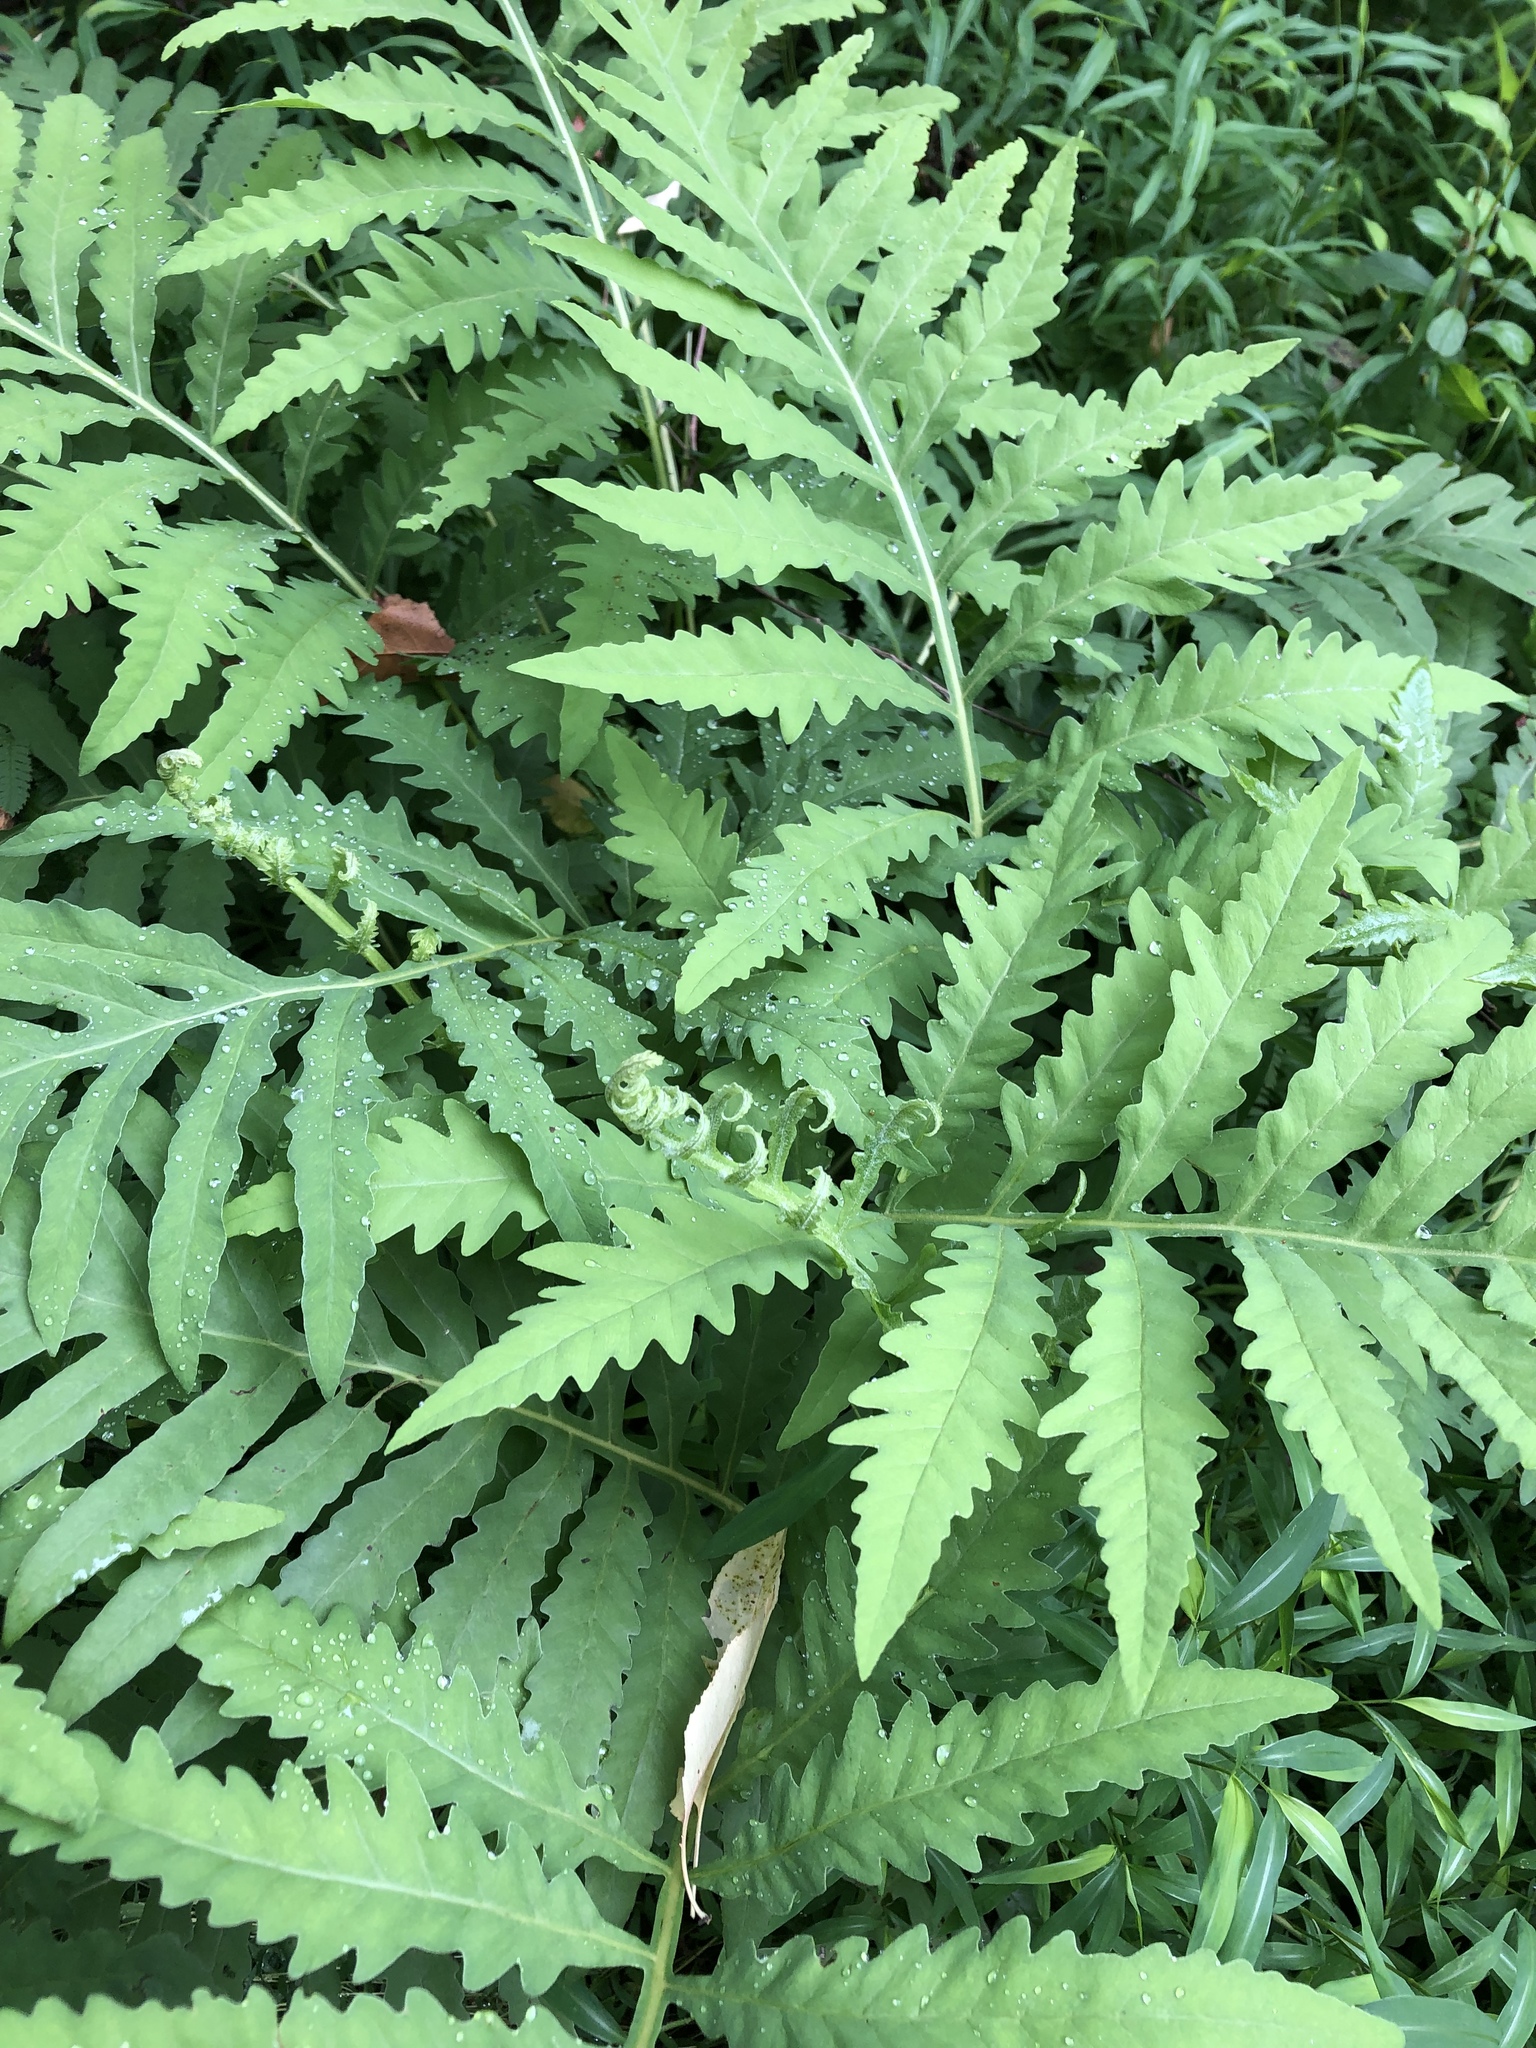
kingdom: Plantae
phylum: Tracheophyta
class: Polypodiopsida
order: Polypodiales
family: Onocleaceae
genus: Onoclea
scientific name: Onoclea sensibilis
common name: Sensitive fern
